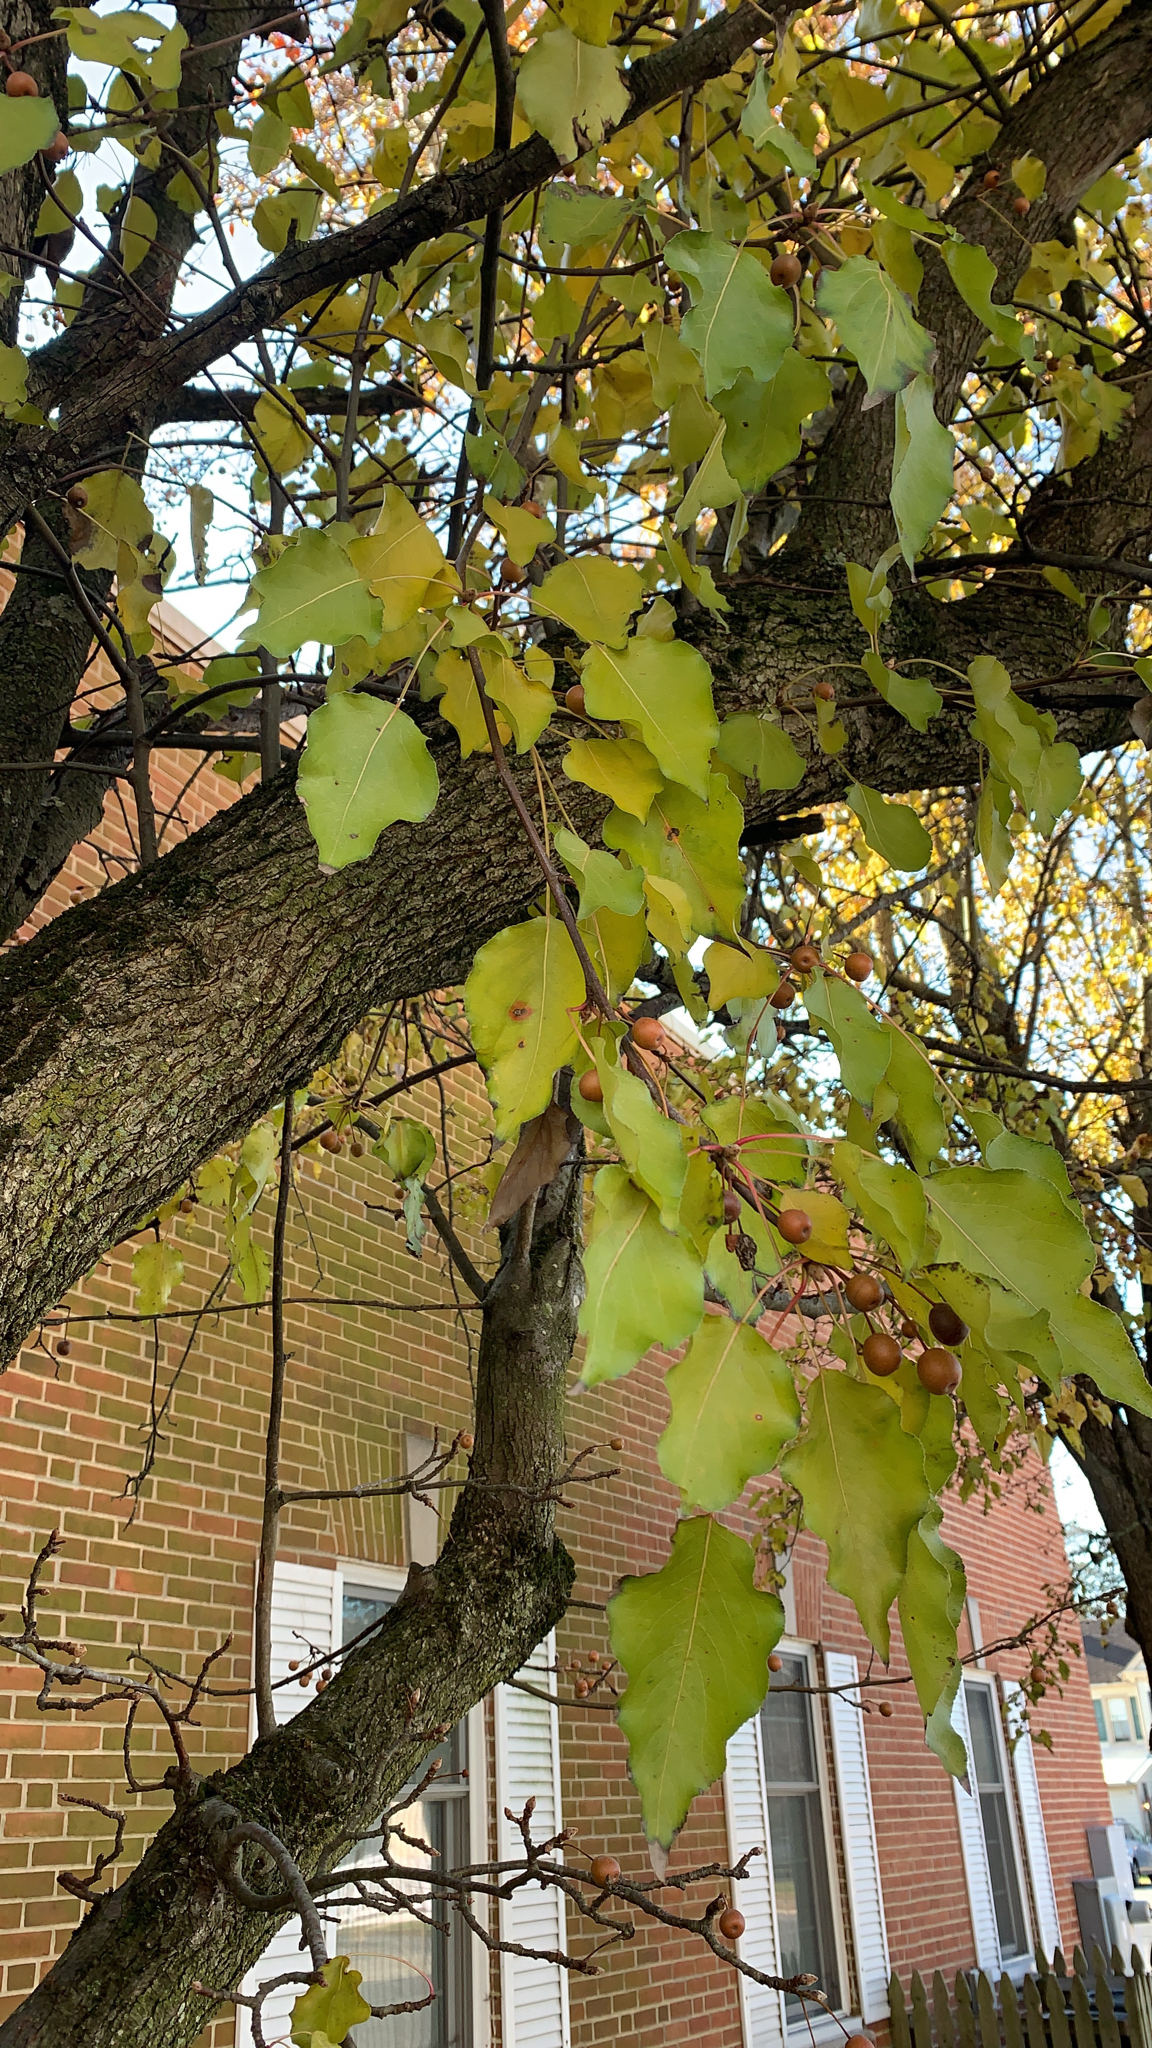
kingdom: Plantae
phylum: Tracheophyta
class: Magnoliopsida
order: Rosales
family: Rosaceae
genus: Pyrus
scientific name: Pyrus calleryana
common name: Callery pear
